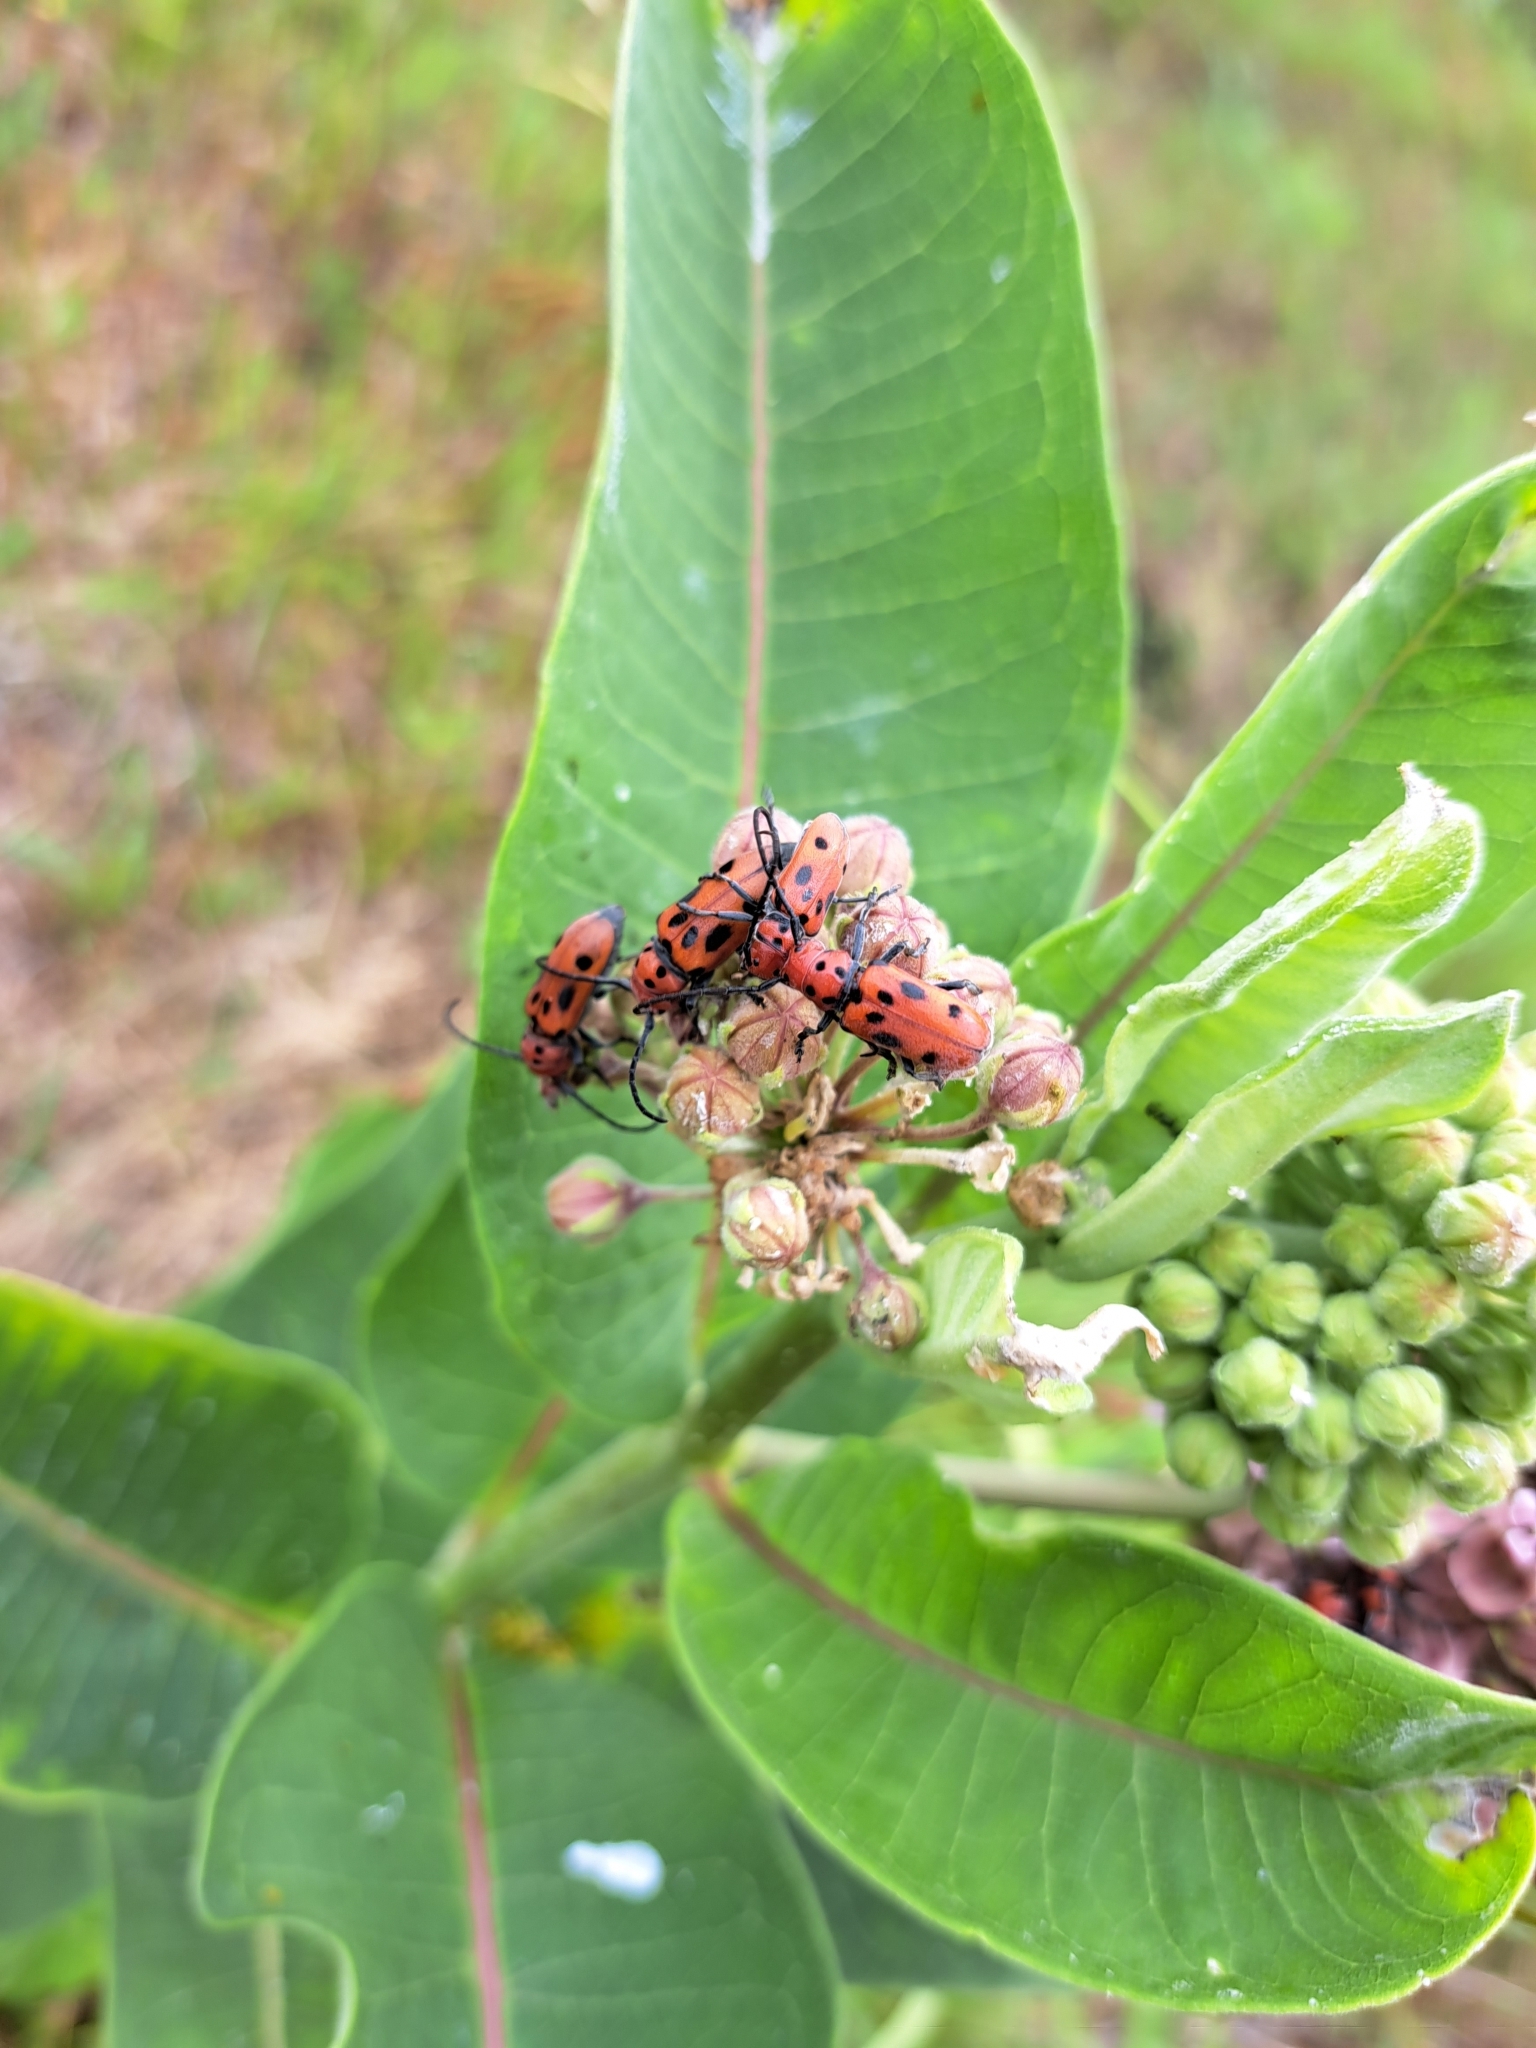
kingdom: Animalia
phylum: Arthropoda
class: Insecta
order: Coleoptera
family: Cerambycidae
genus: Tetraopes
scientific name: Tetraopes tetrophthalmus
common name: Red milkweed beetle
